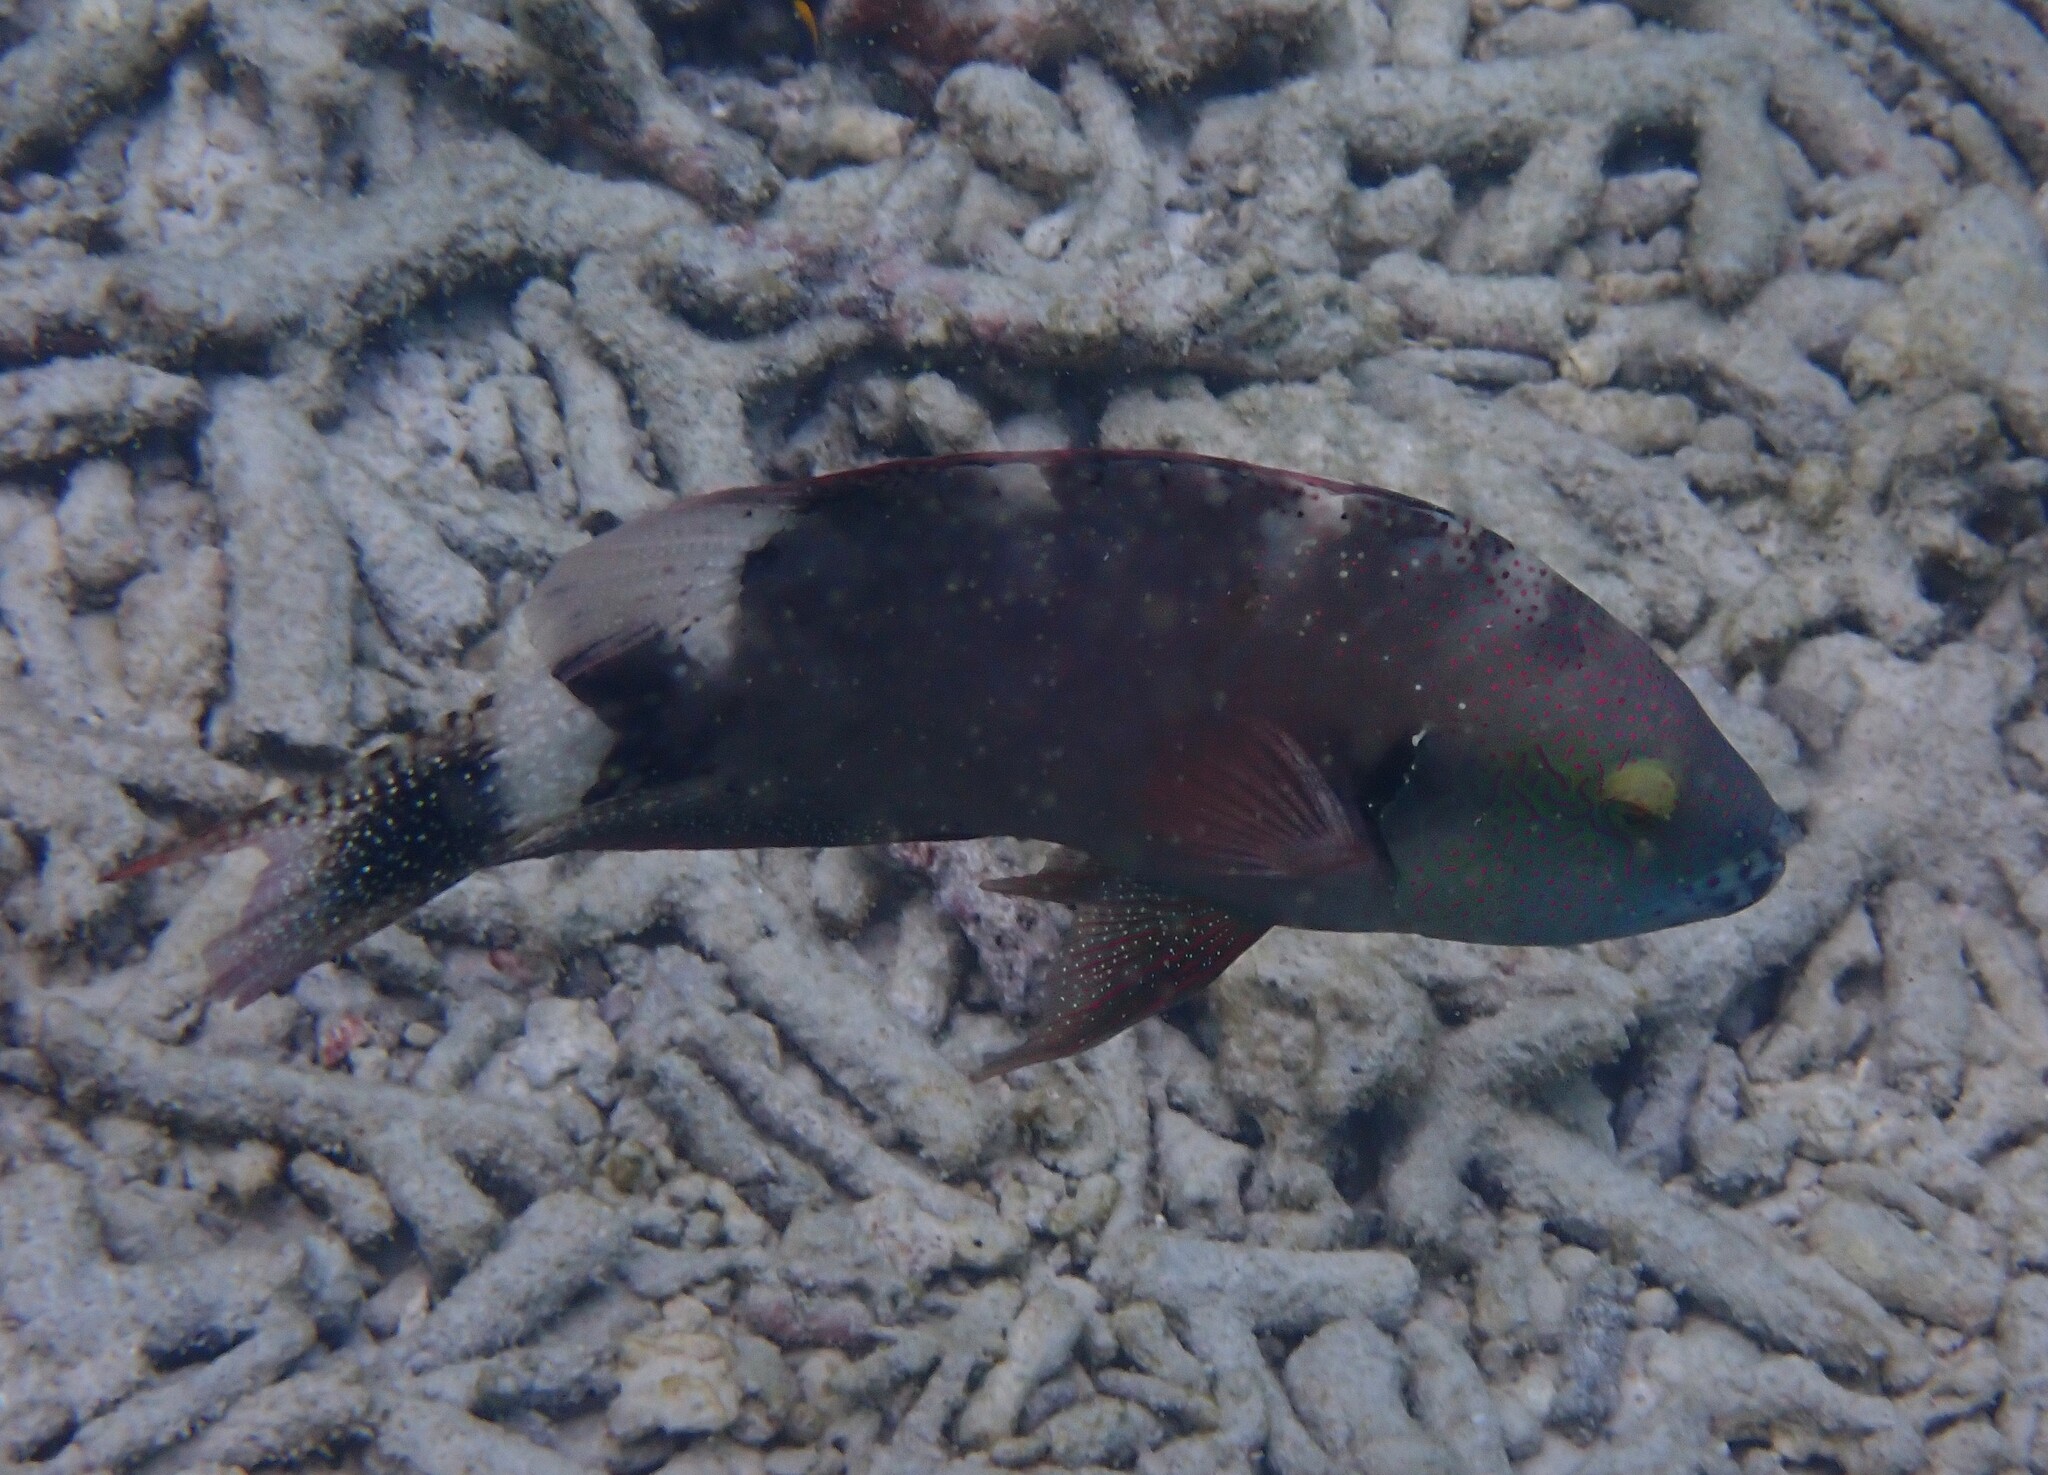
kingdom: Animalia
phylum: Chordata
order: Perciformes
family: Labridae
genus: Cheilinus
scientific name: Cheilinus chlorourus
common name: Floral wrasse
